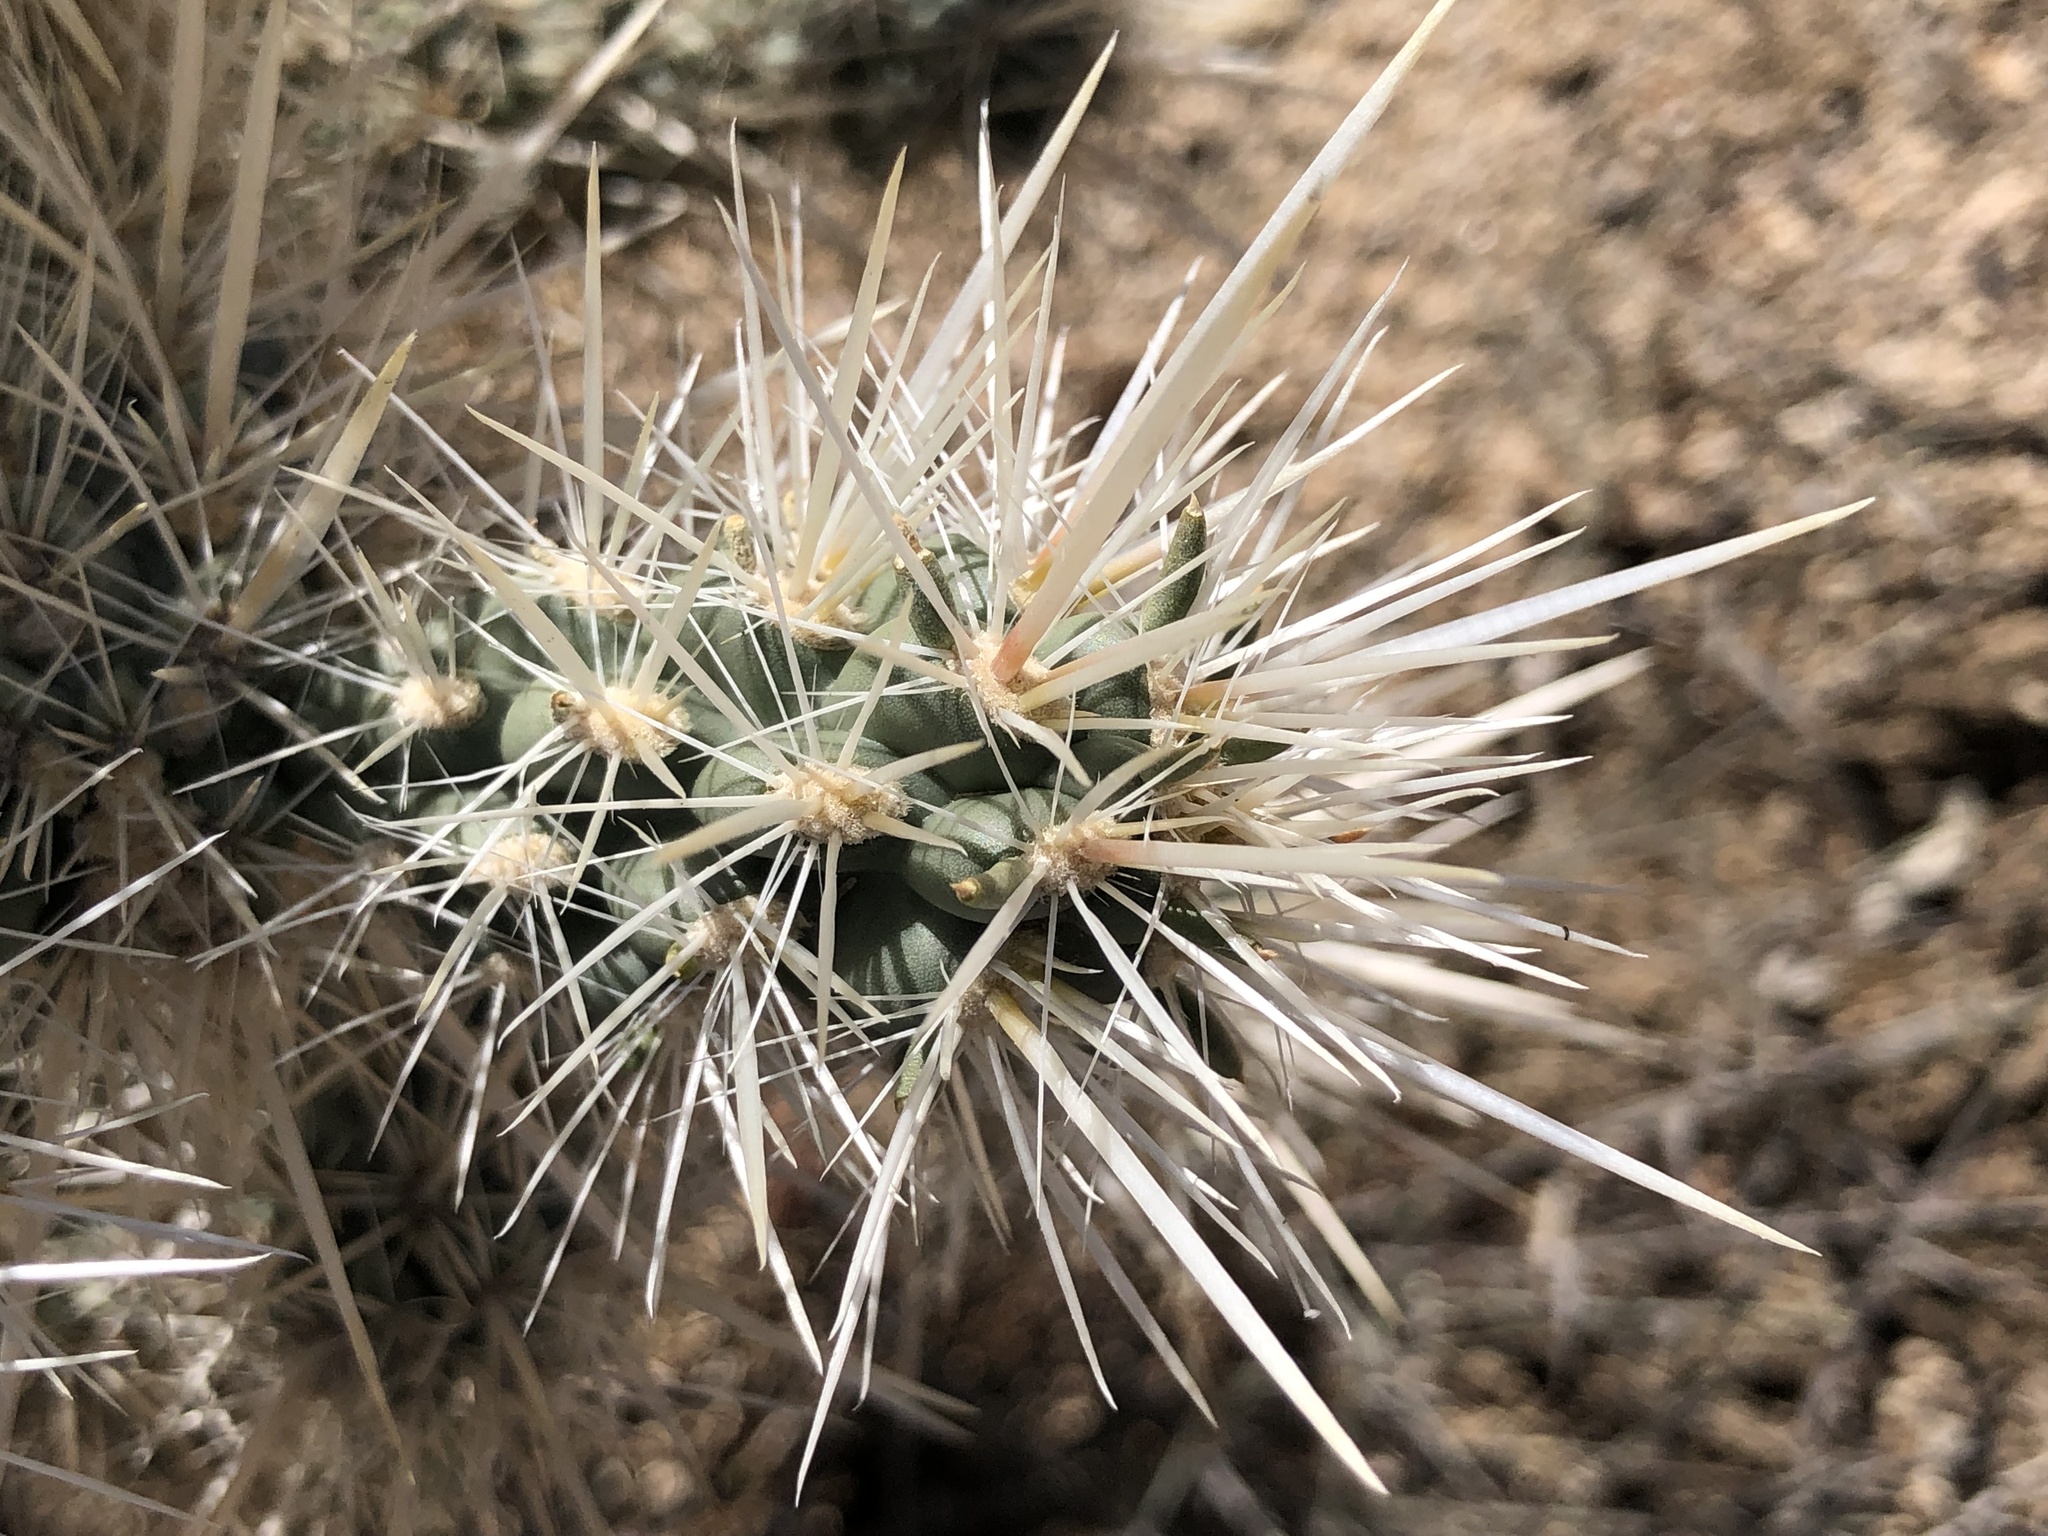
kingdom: Plantae
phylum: Tracheophyta
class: Magnoliopsida
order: Caryophyllales
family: Cactaceae
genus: Cylindropuntia
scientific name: Cylindropuntia echinocarpa
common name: Ground cholla
